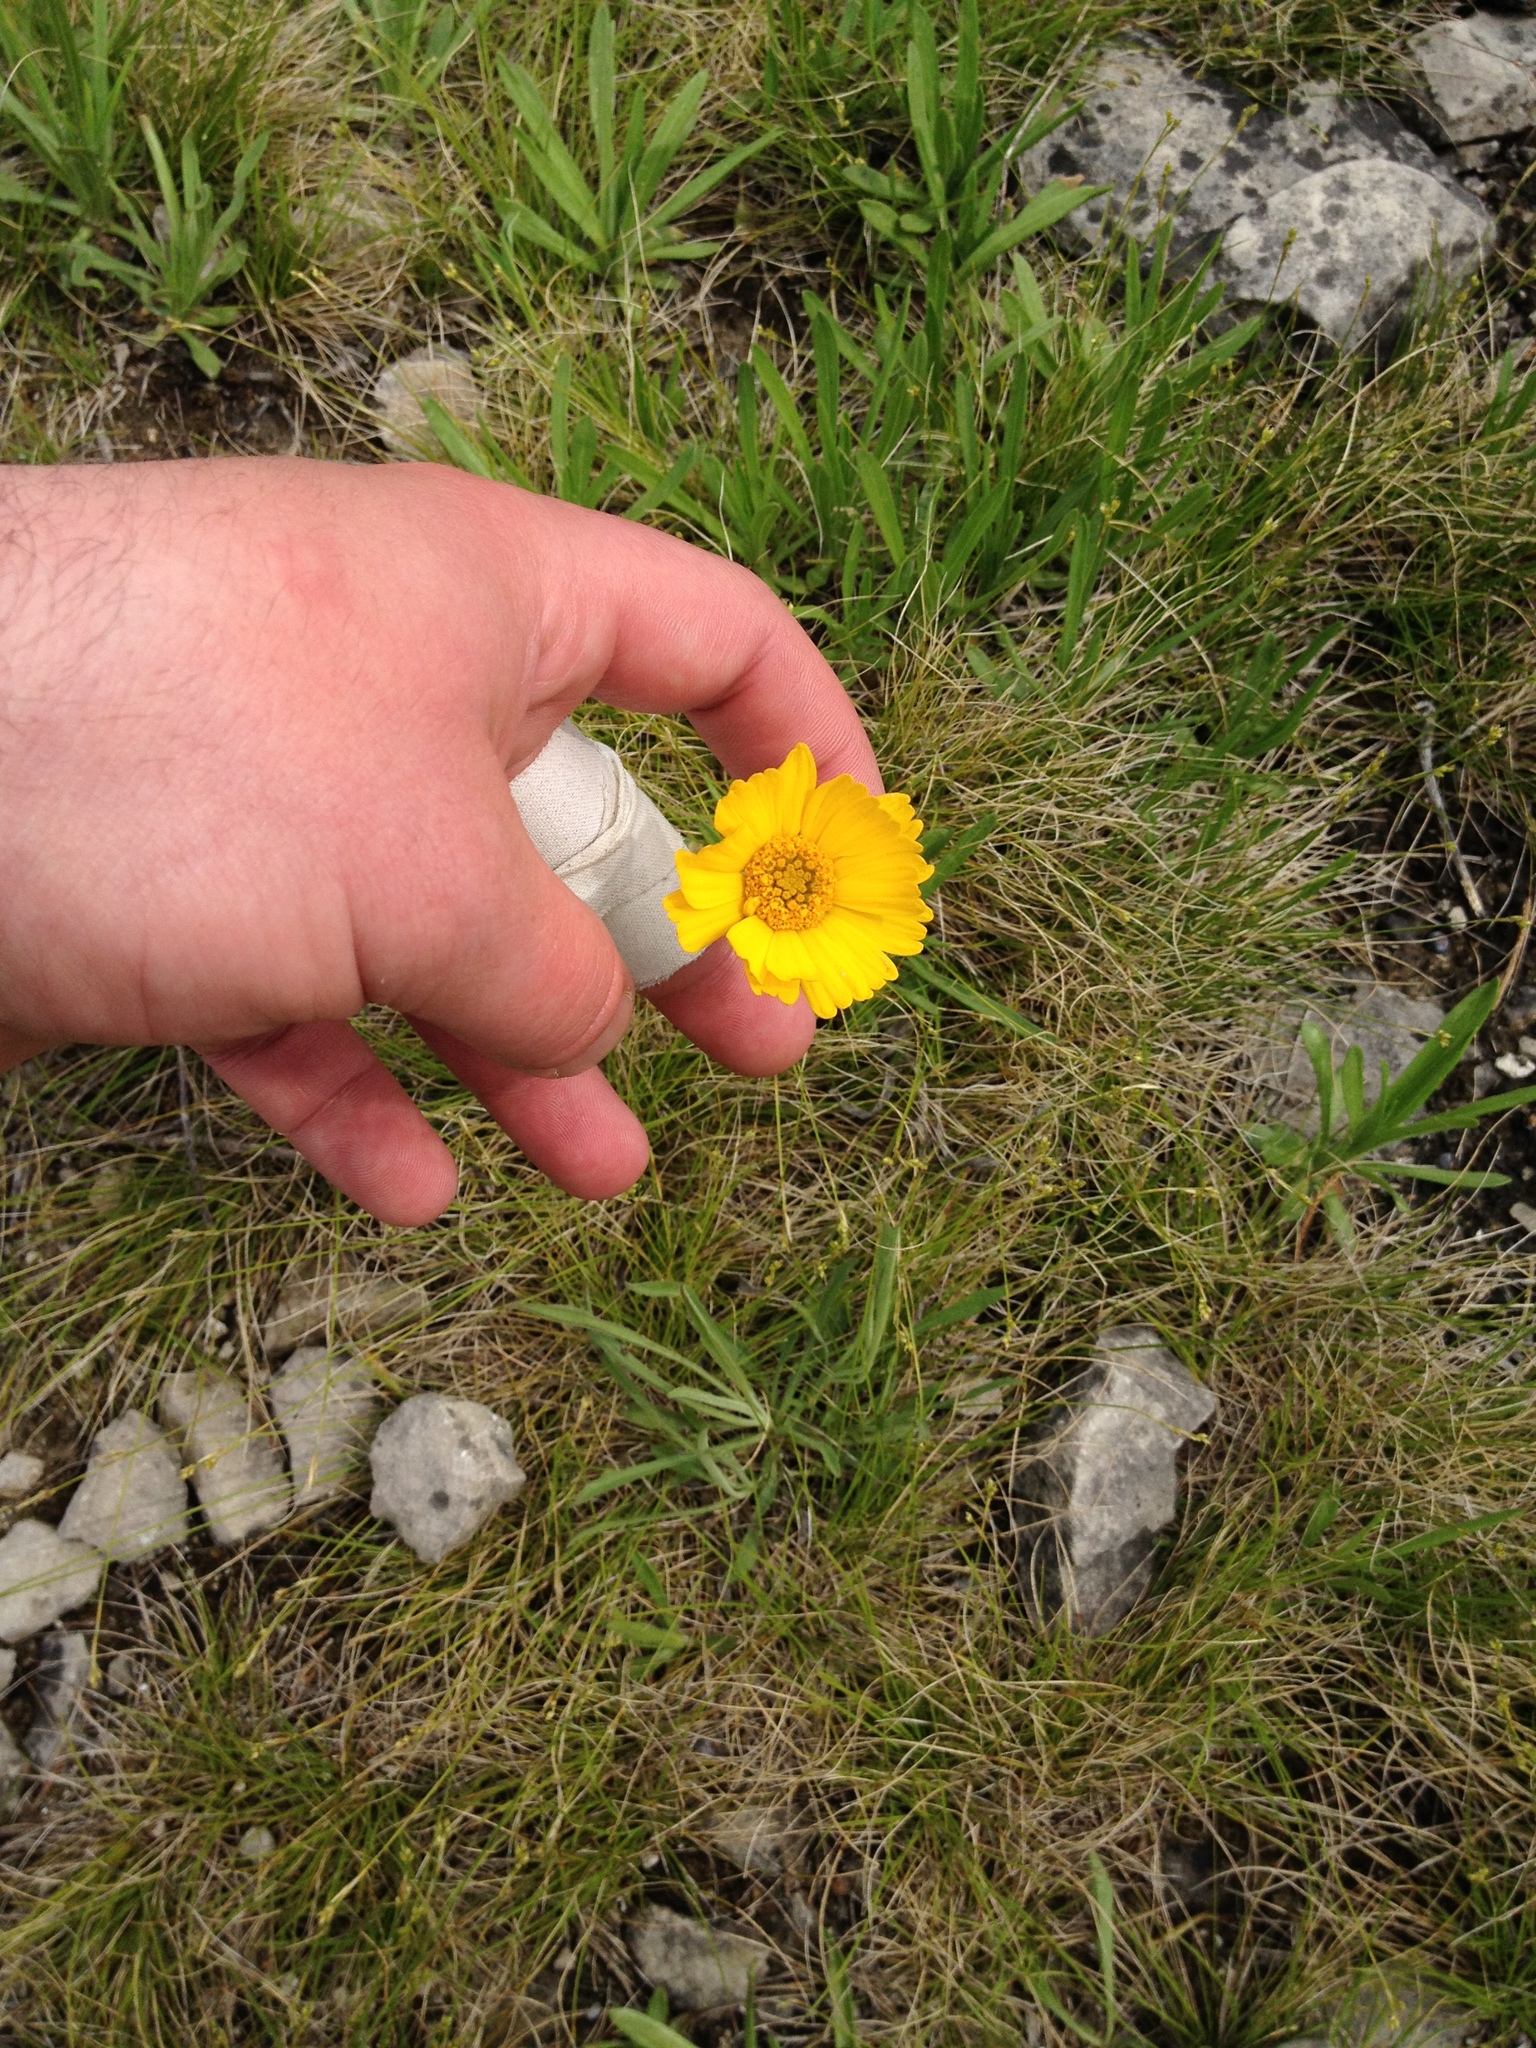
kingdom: Plantae
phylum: Tracheophyta
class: Magnoliopsida
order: Asterales
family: Asteraceae
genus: Tetraneuris
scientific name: Tetraneuris herbacea
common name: Lakeside daisy
